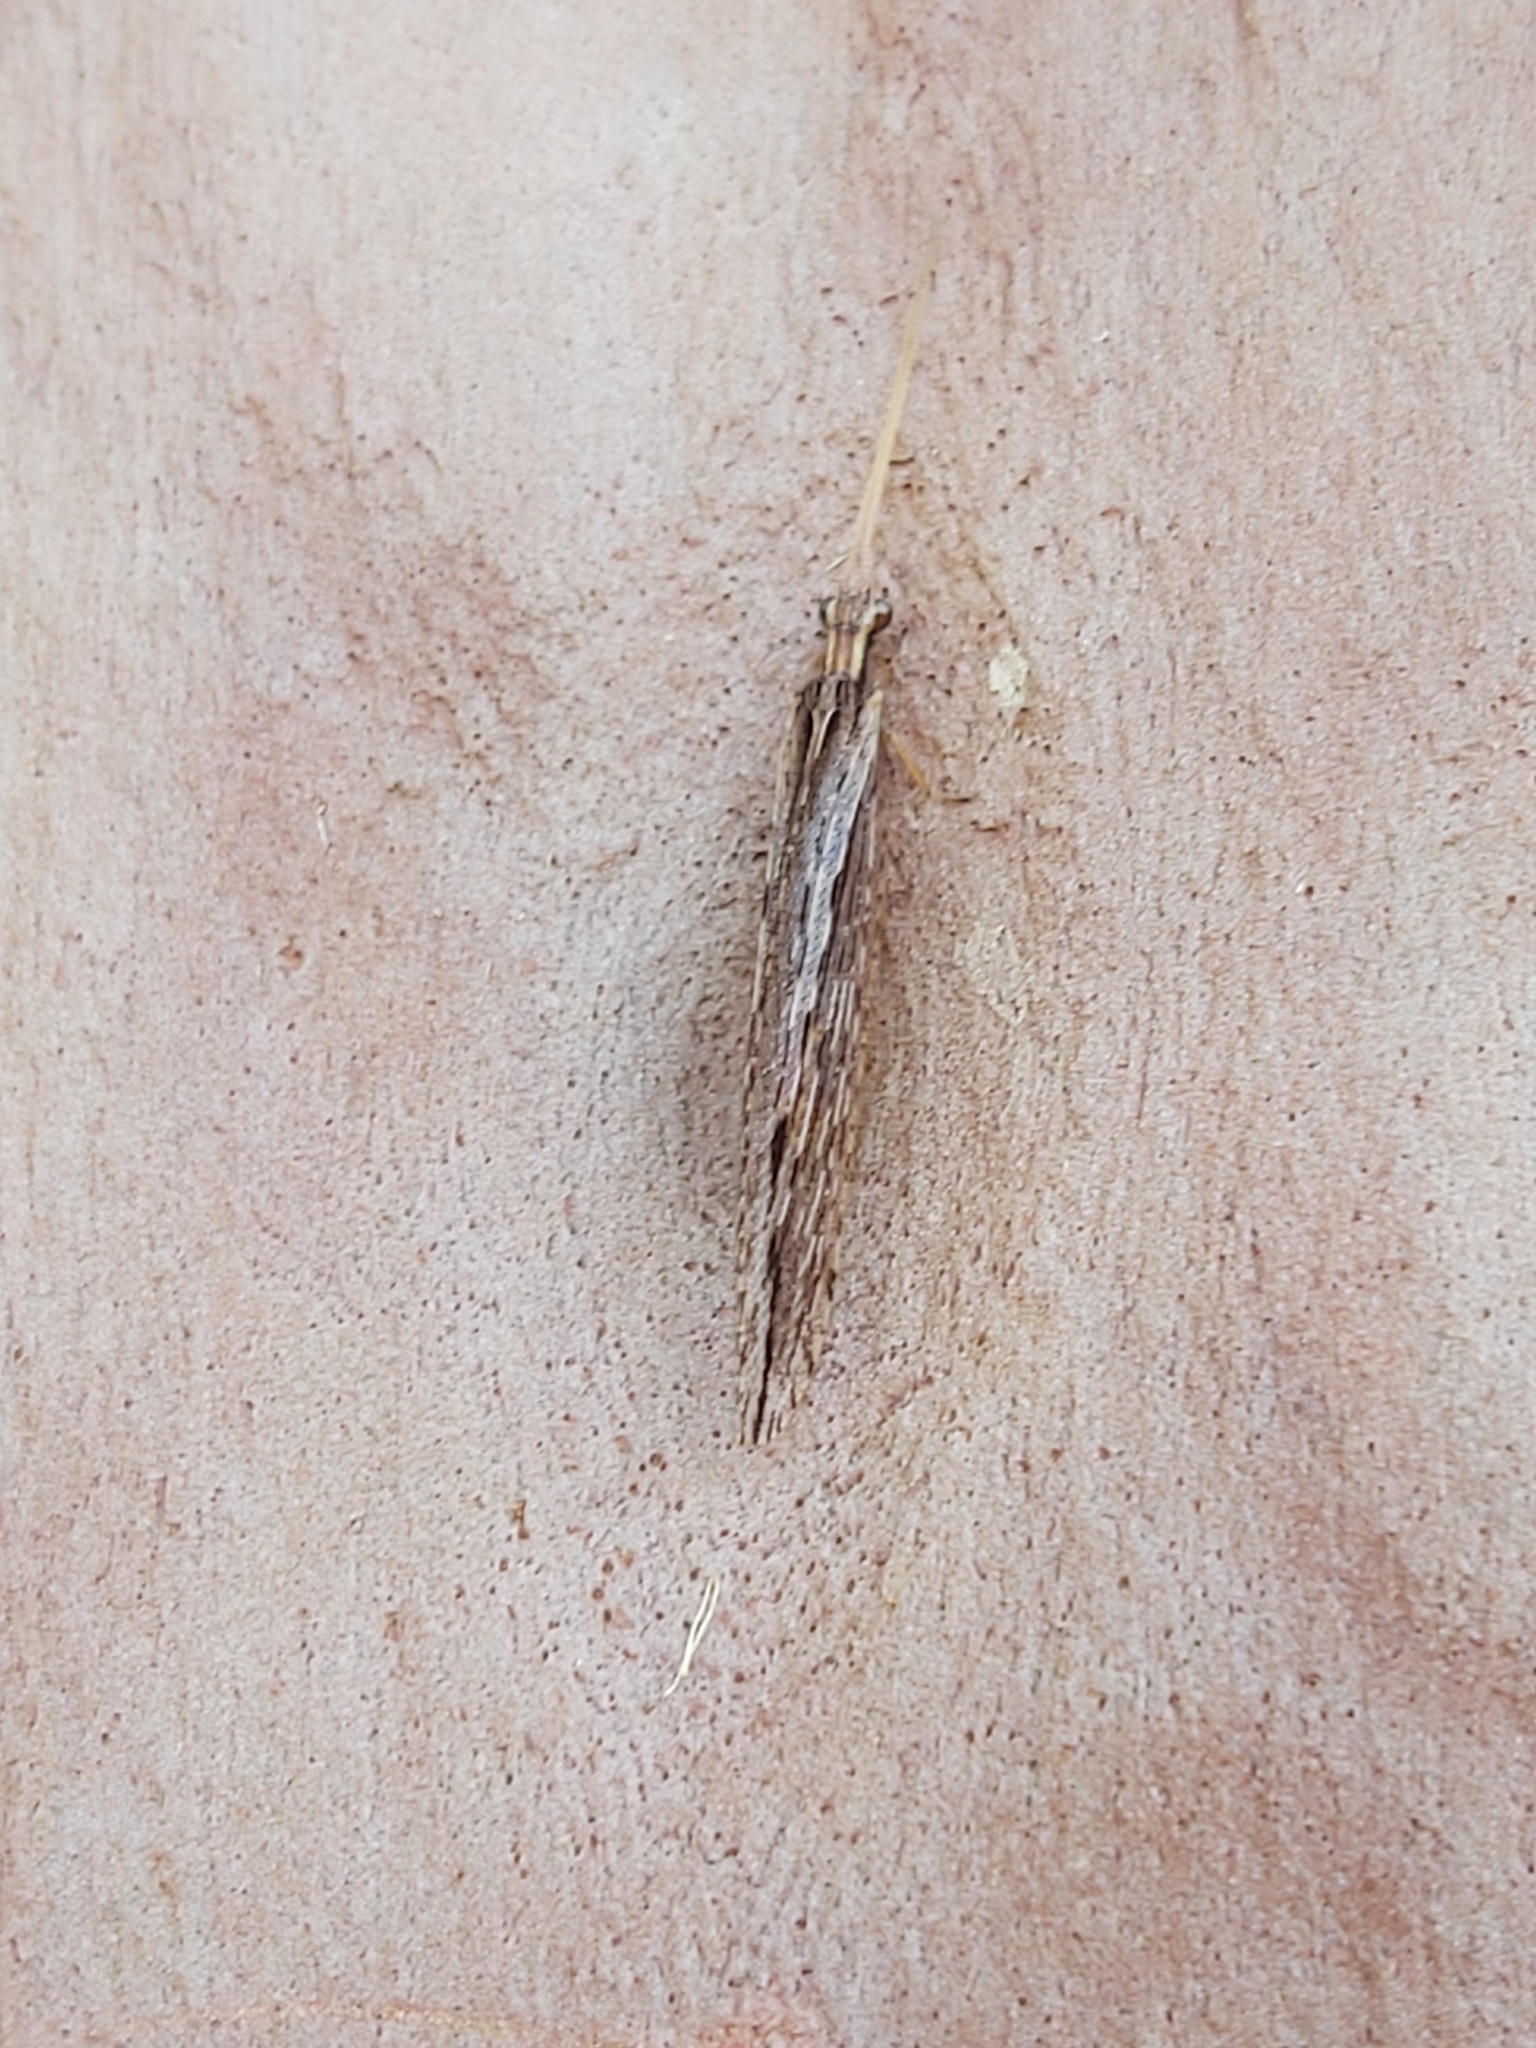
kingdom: Animalia
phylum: Arthropoda
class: Insecta
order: Neuroptera
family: Osmylidae
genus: Stenosmylus
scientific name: Stenosmylus stenopterus
